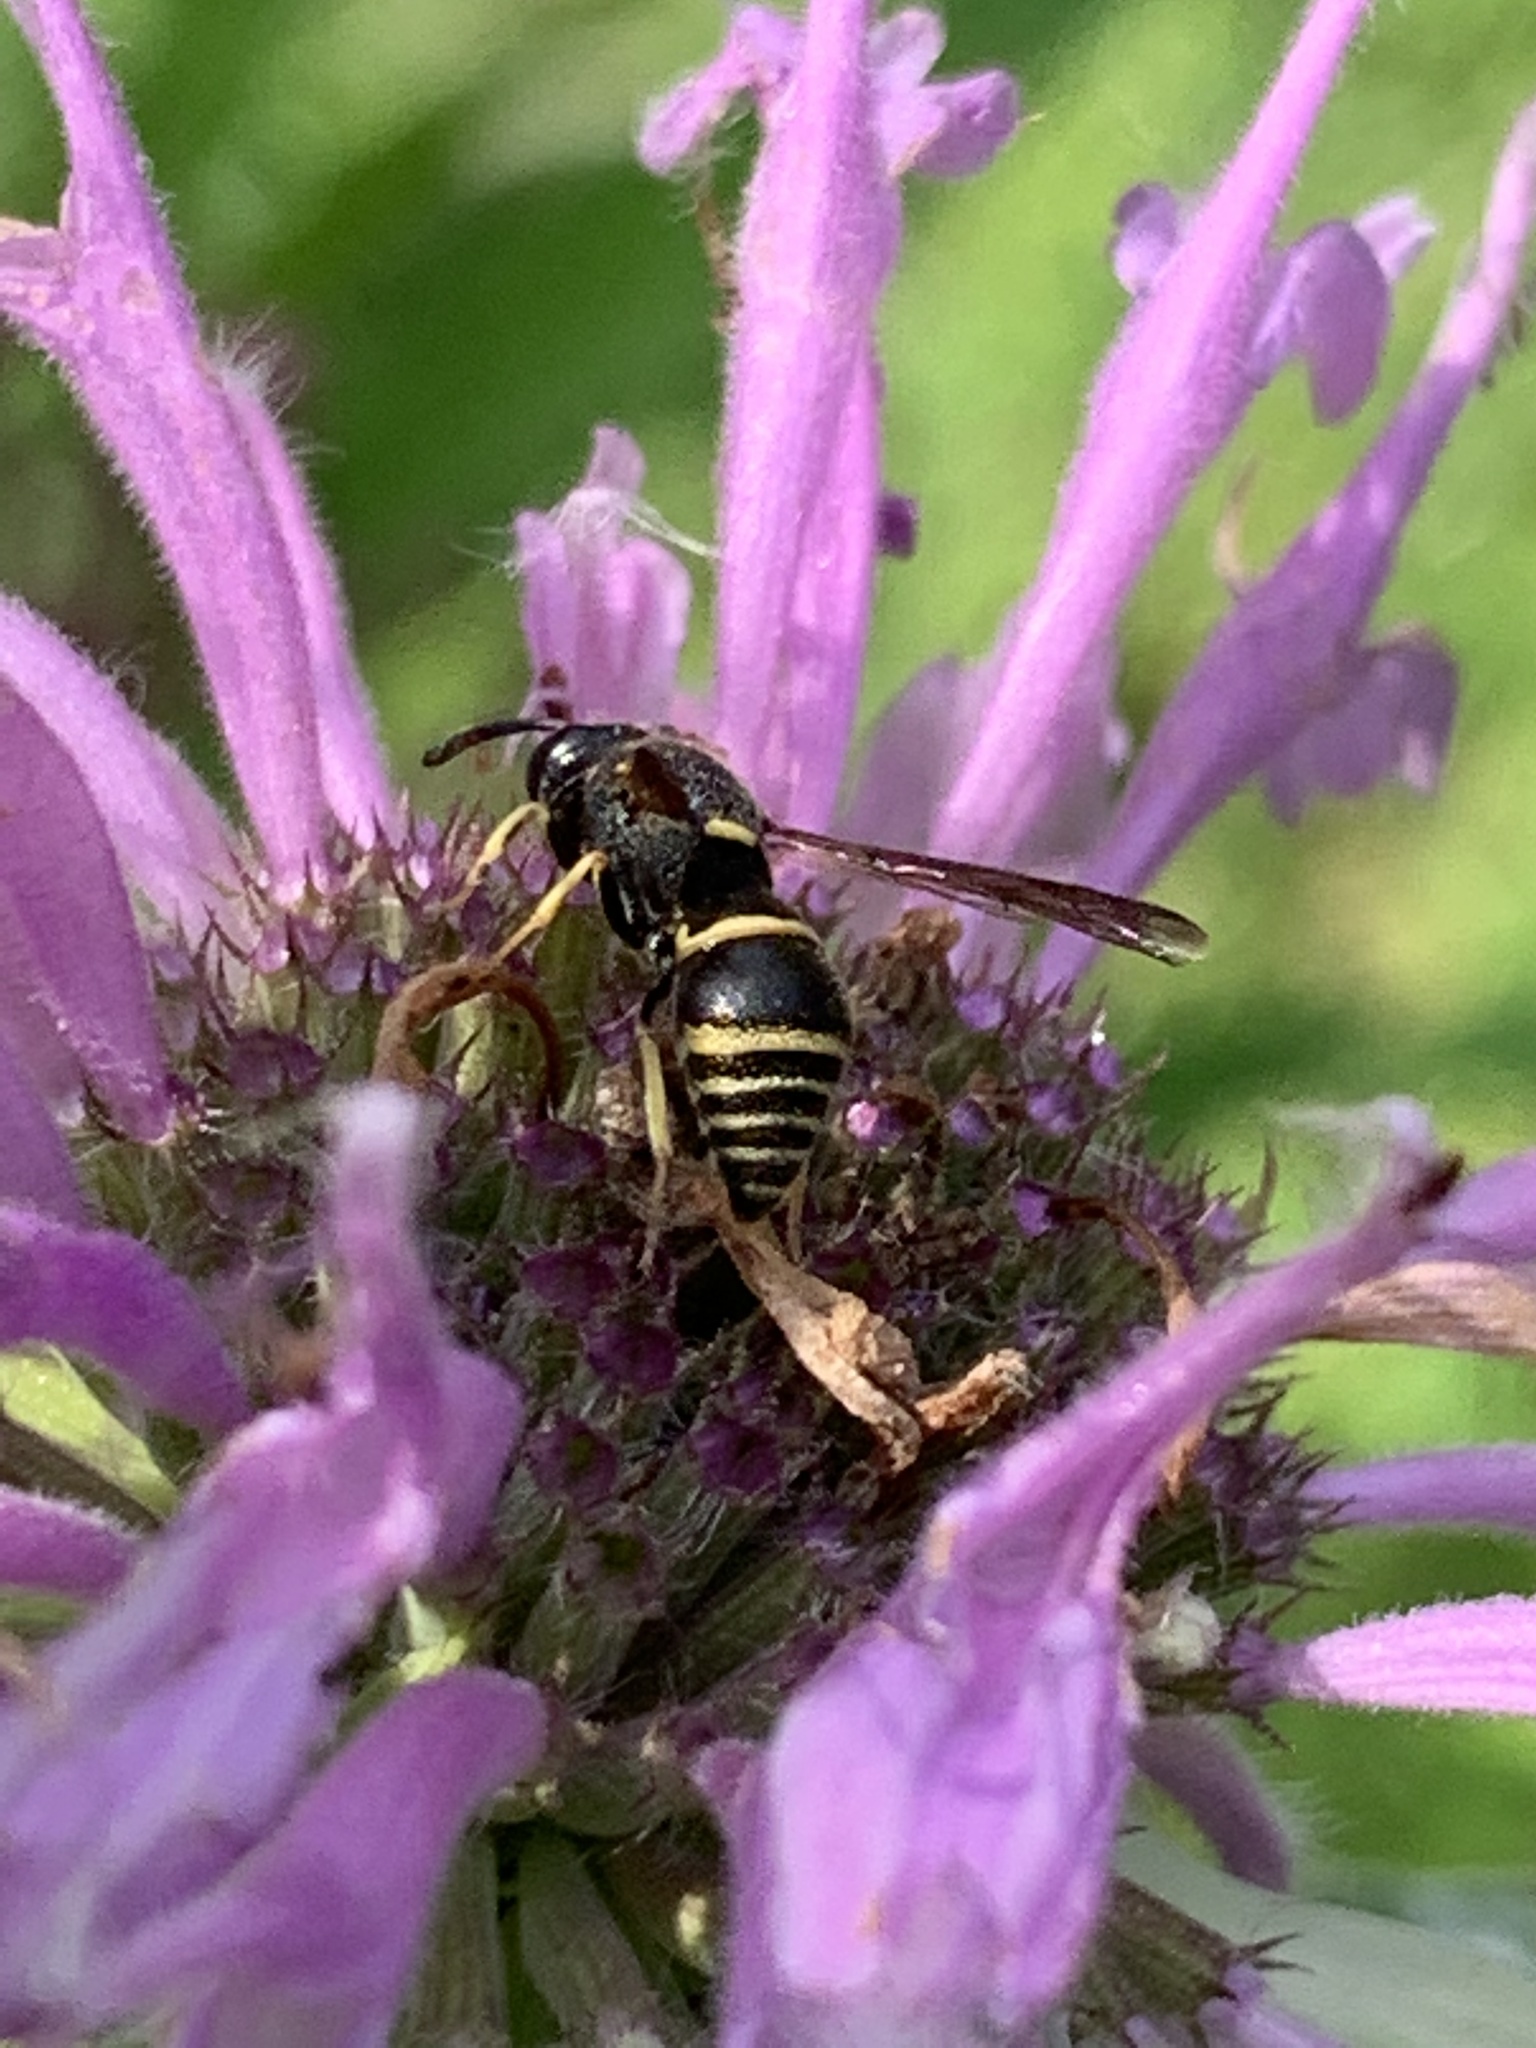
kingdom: Animalia
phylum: Arthropoda
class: Insecta
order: Hymenoptera
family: Eumenidae
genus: Euodynerus
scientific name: Euodynerus foraminatus
